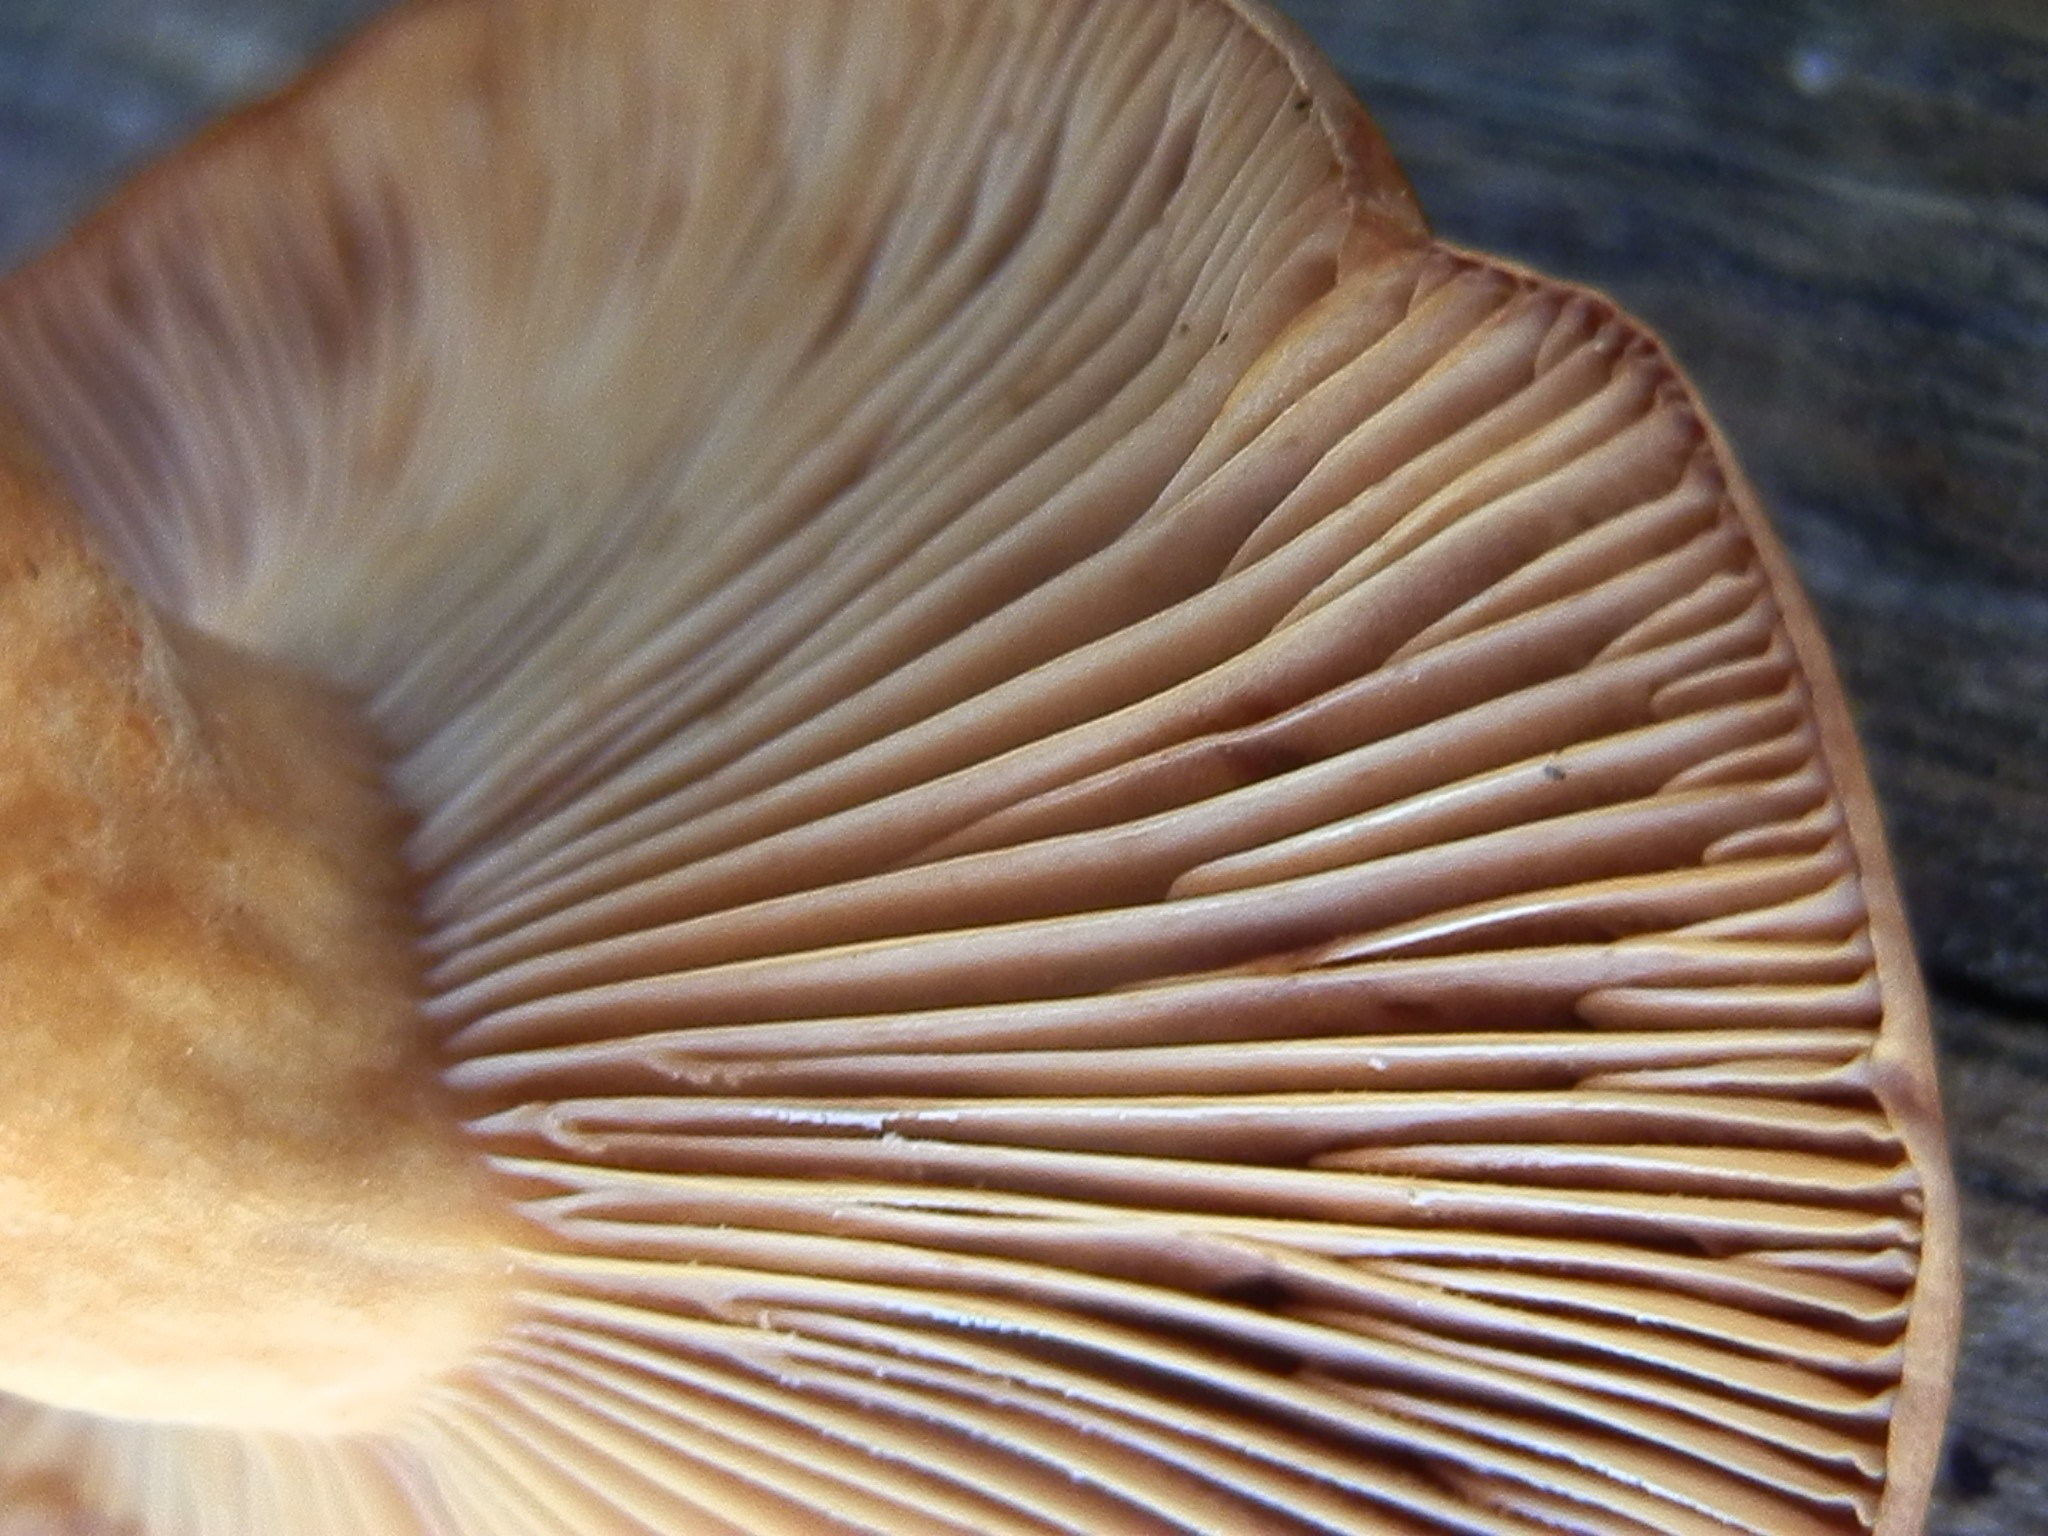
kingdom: Fungi
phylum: Basidiomycota
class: Agaricomycetes
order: Russulales
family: Russulaceae
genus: Lactarius
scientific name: Lactarius luculentus
